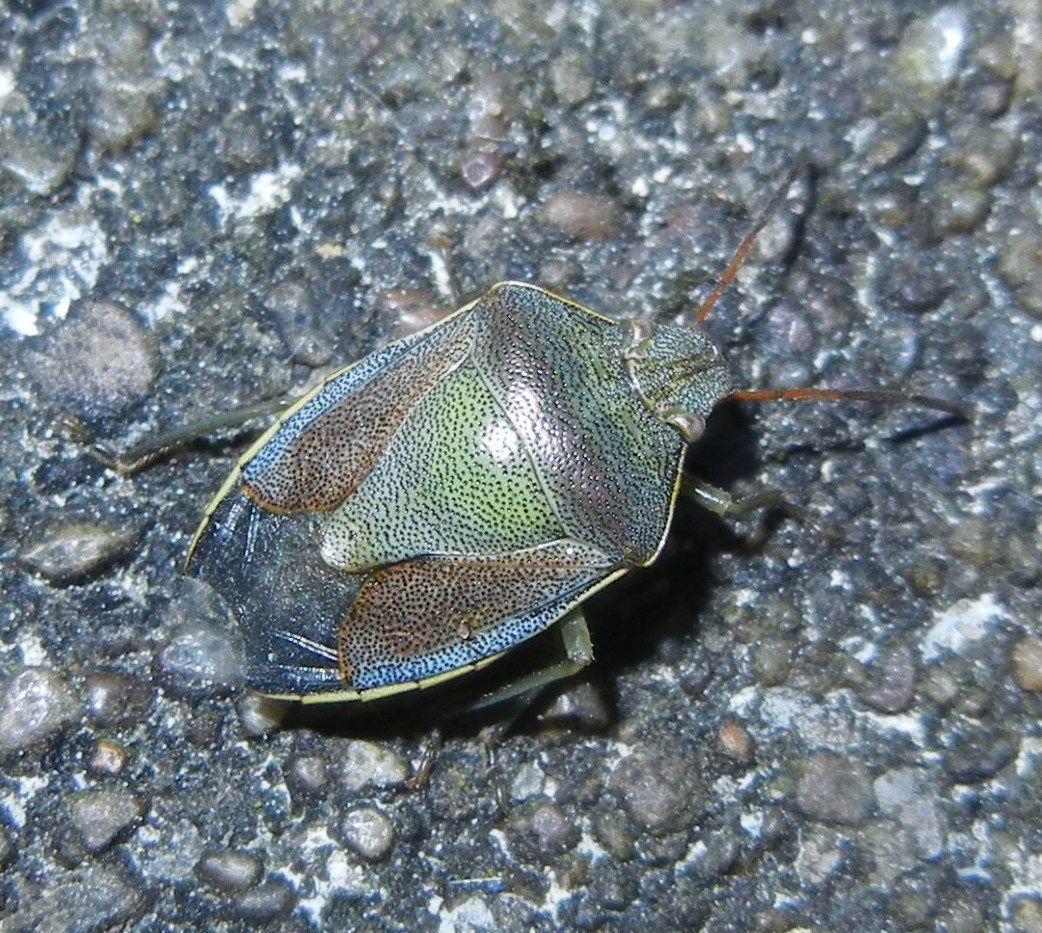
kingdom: Animalia
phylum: Arthropoda
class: Insecta
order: Hemiptera
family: Pentatomidae
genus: Piezodorus
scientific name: Piezodorus lituratus
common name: Stink bug
